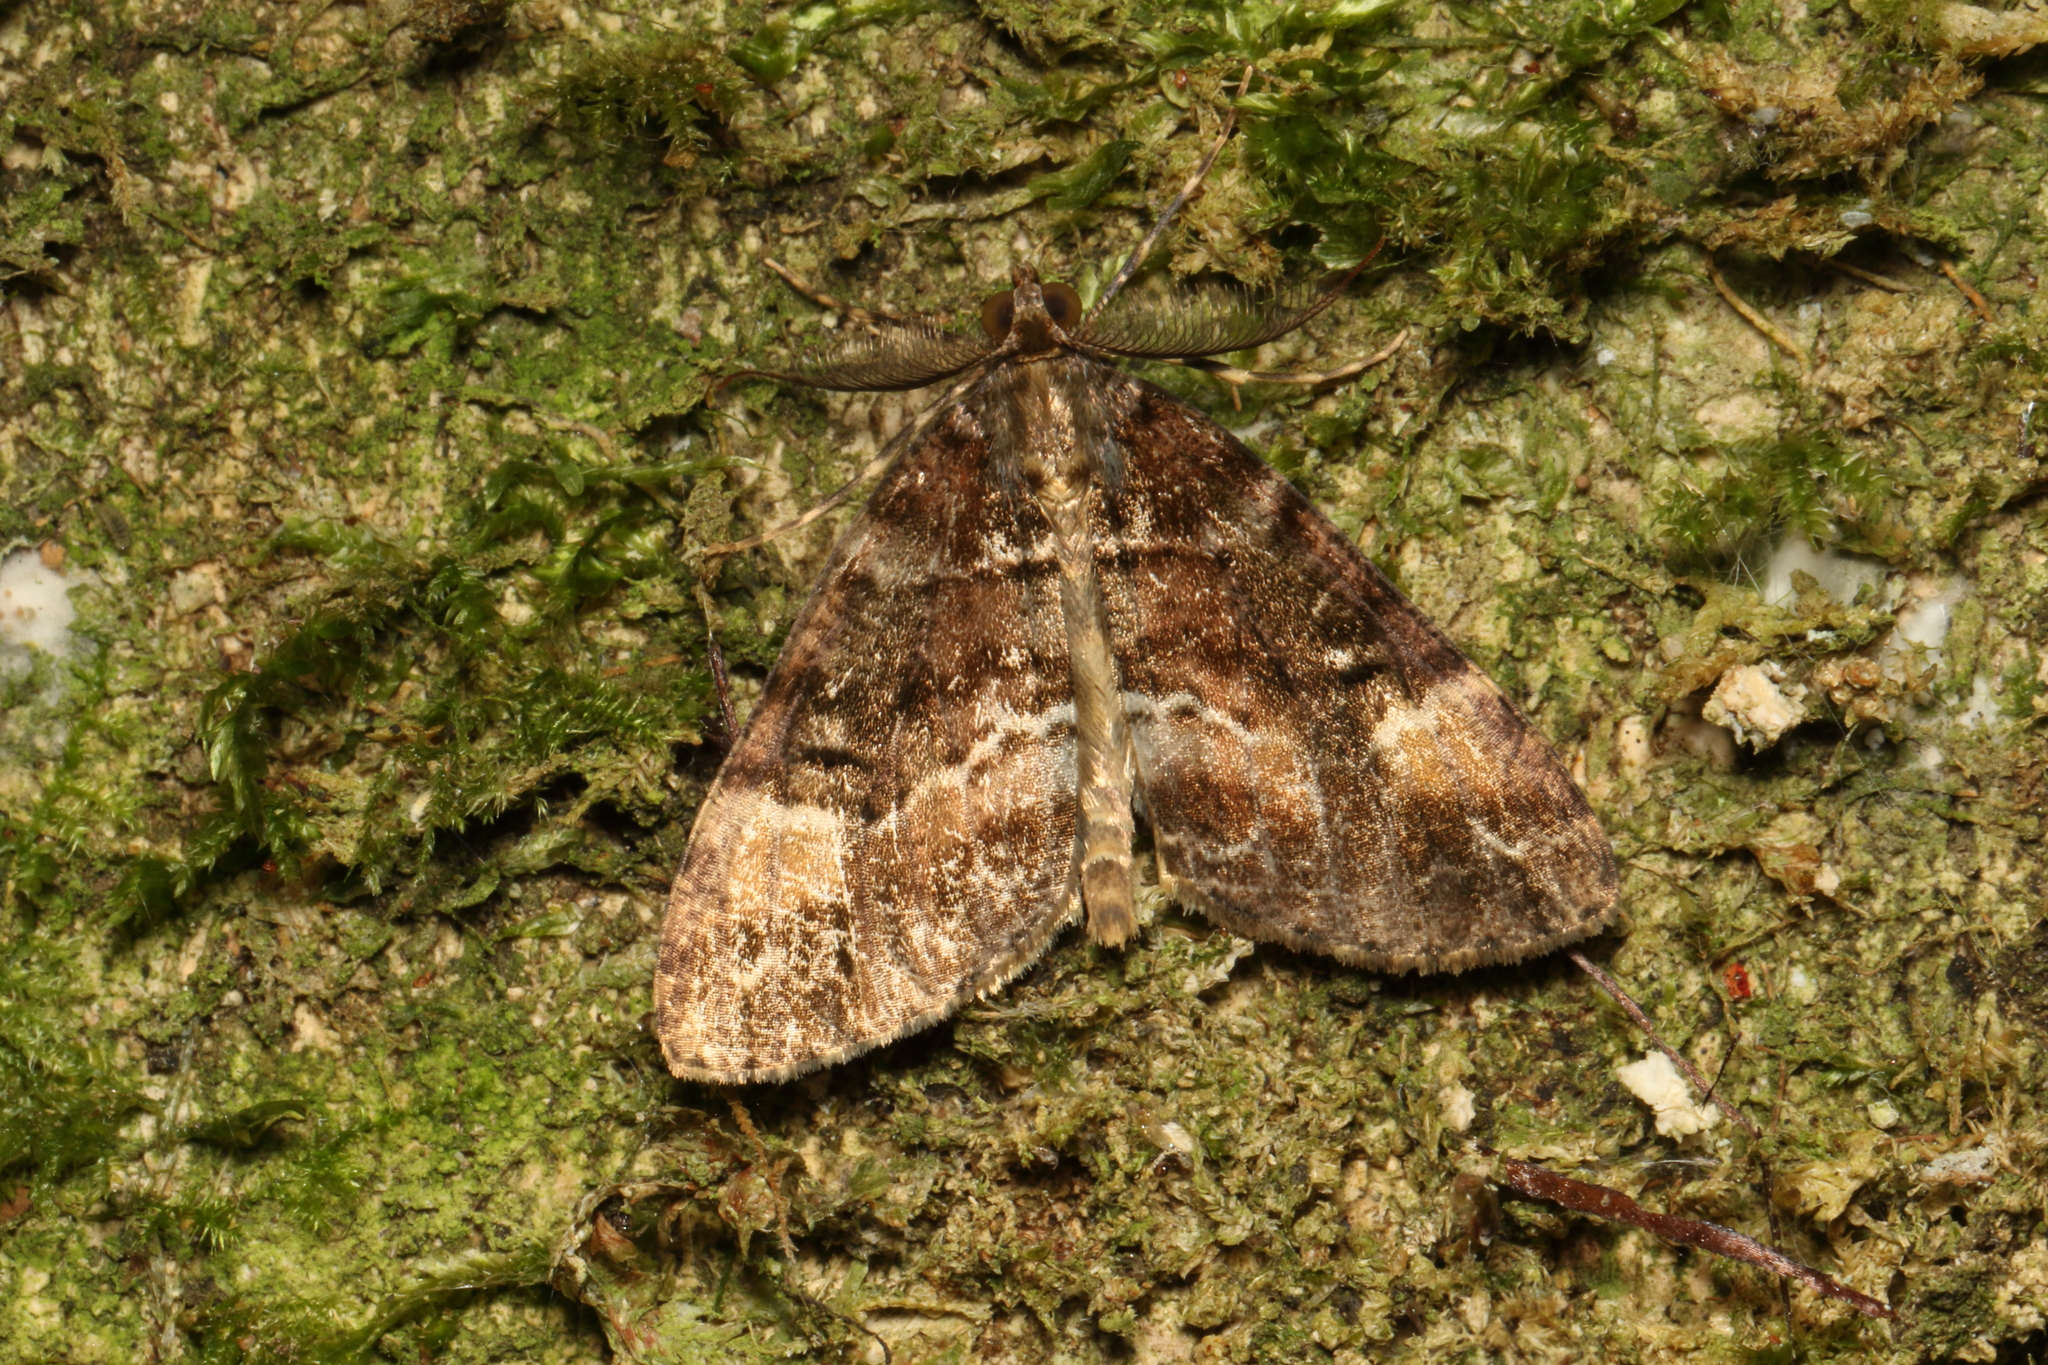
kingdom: Animalia
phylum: Arthropoda
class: Insecta
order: Lepidoptera
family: Geometridae
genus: Pseudocoremia
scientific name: Pseudocoremia productata
